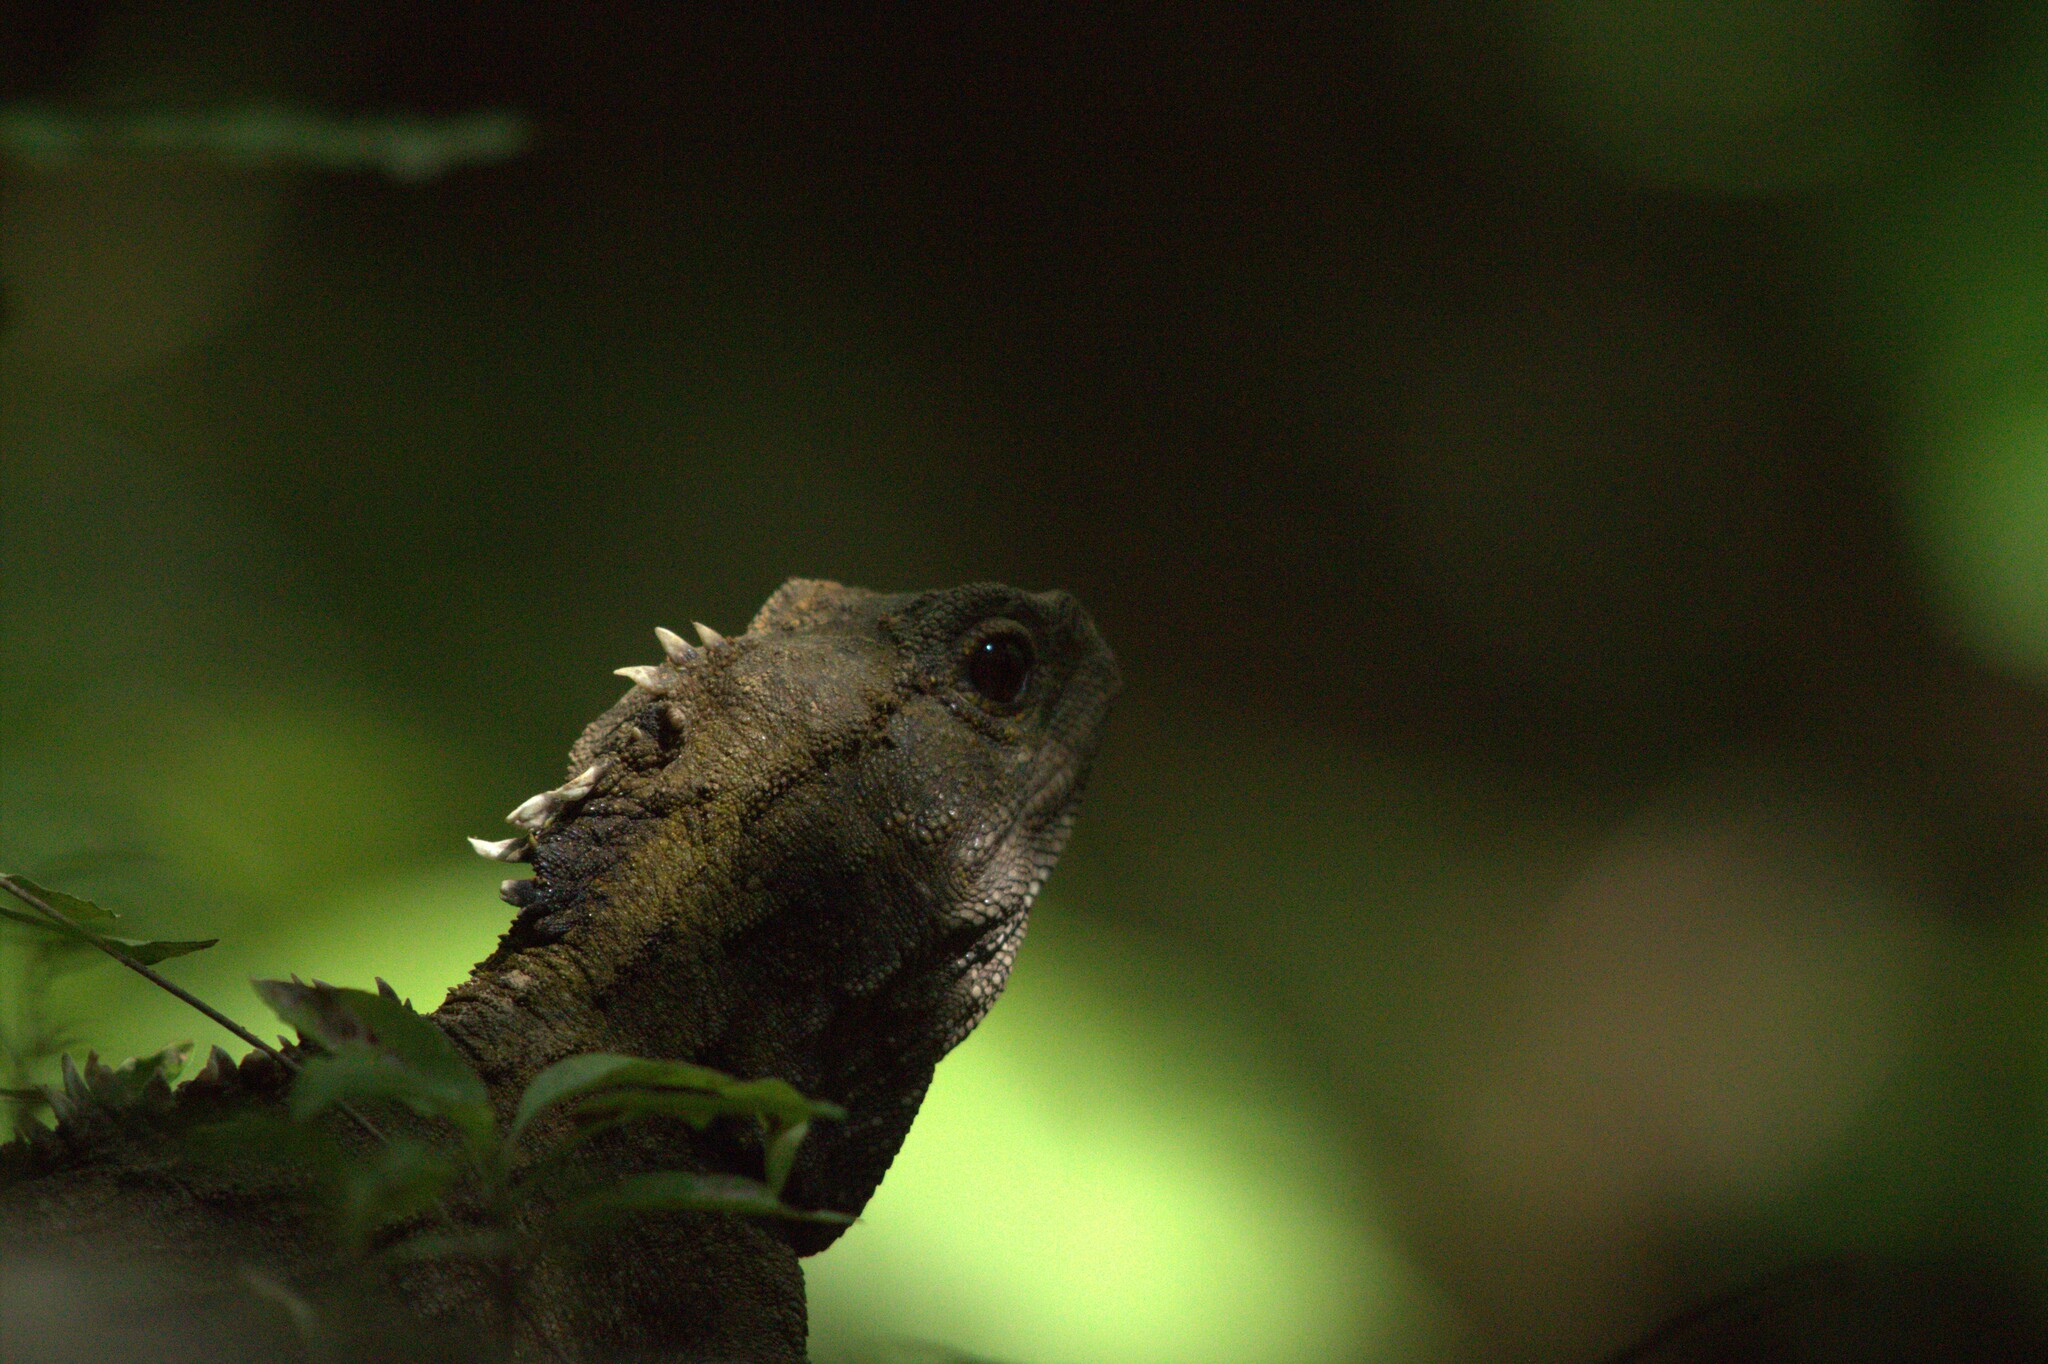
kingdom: Animalia
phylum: Chordata
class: Sphenodontia
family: Sphenodontidae
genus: Sphenodon
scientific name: Sphenodon punctatus
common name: Tuatara
